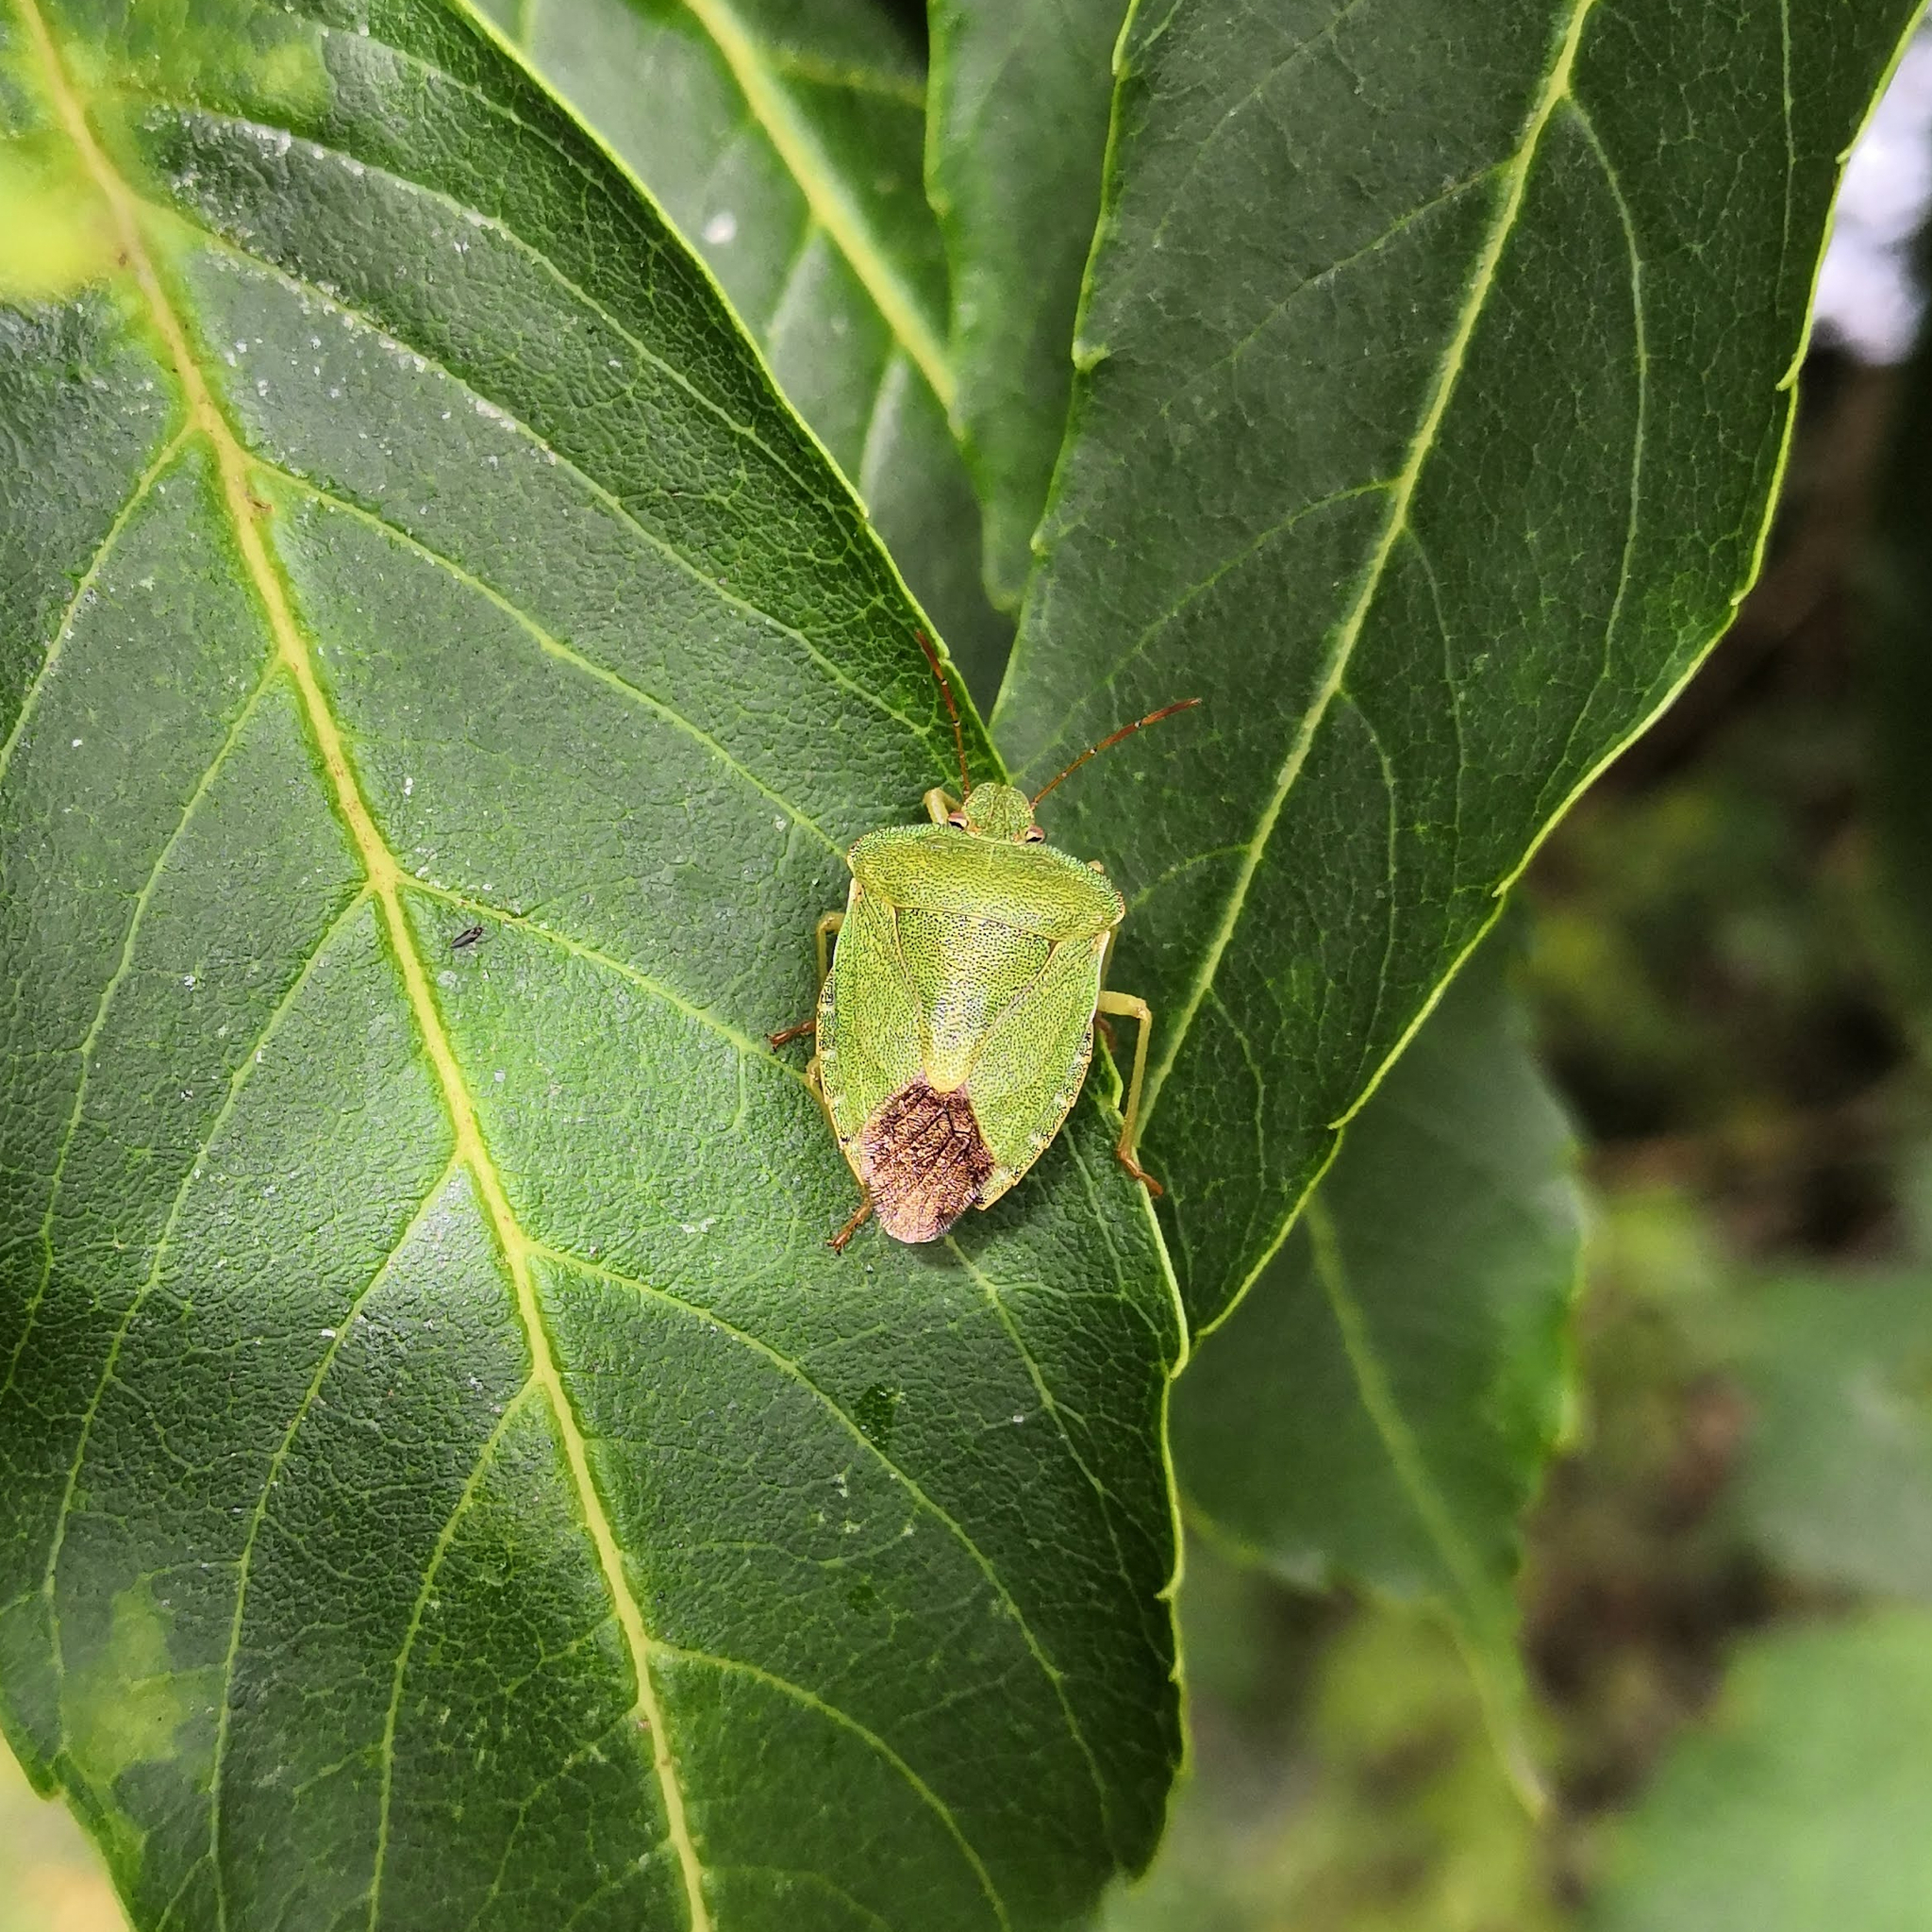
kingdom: Animalia
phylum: Arthropoda
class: Insecta
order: Hemiptera
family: Pentatomidae
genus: Palomena
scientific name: Palomena prasina
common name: Green shieldbug
